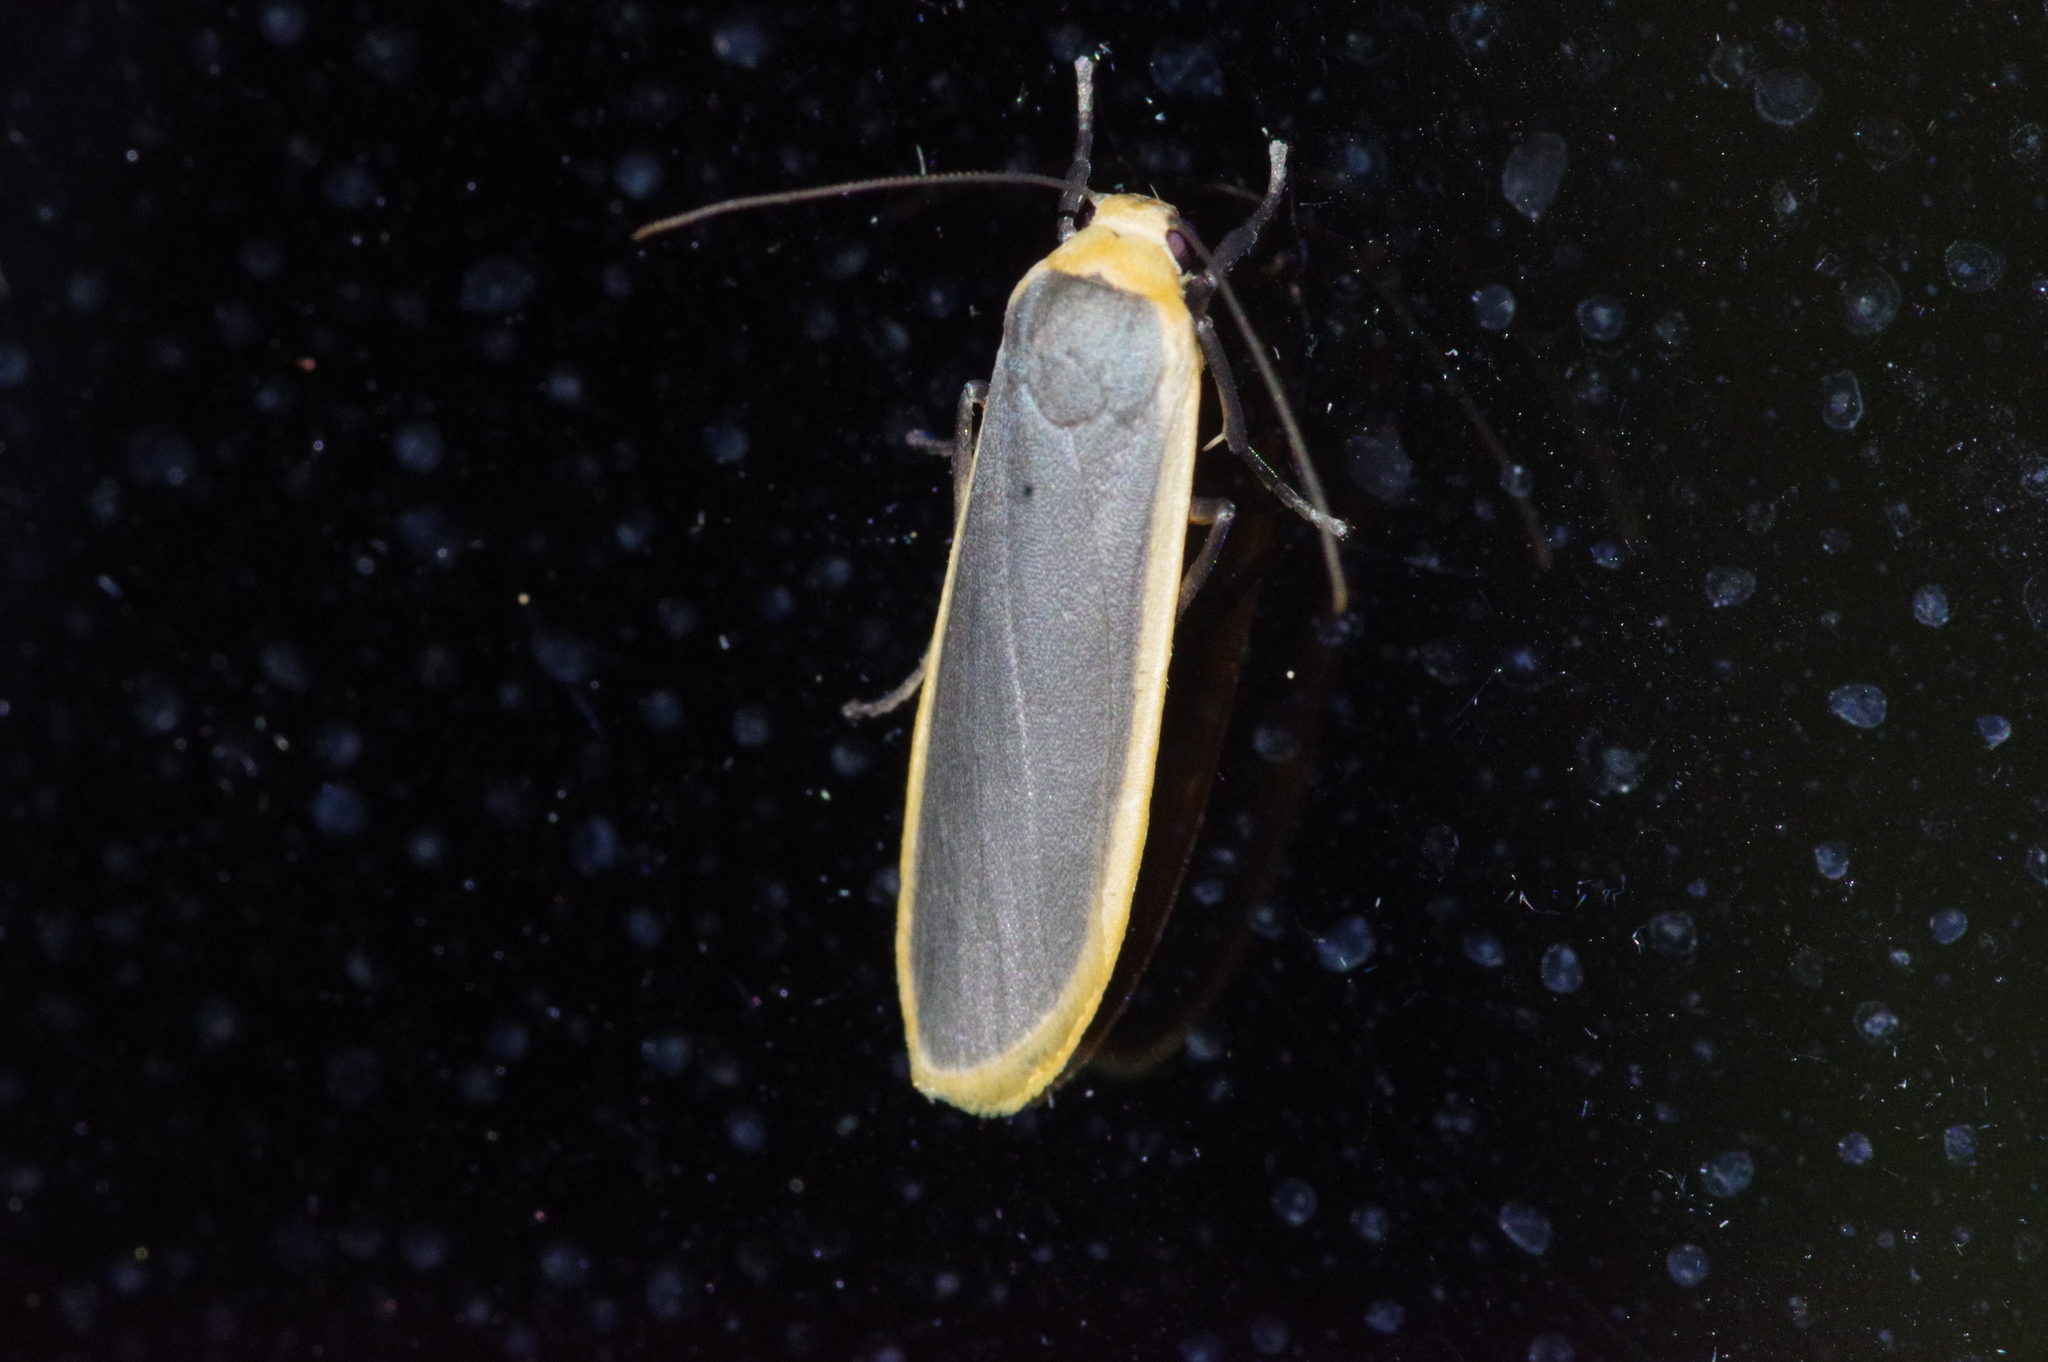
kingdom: Animalia
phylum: Arthropoda
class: Insecta
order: Lepidoptera
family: Erebidae
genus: Brunia
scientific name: Brunia antica
